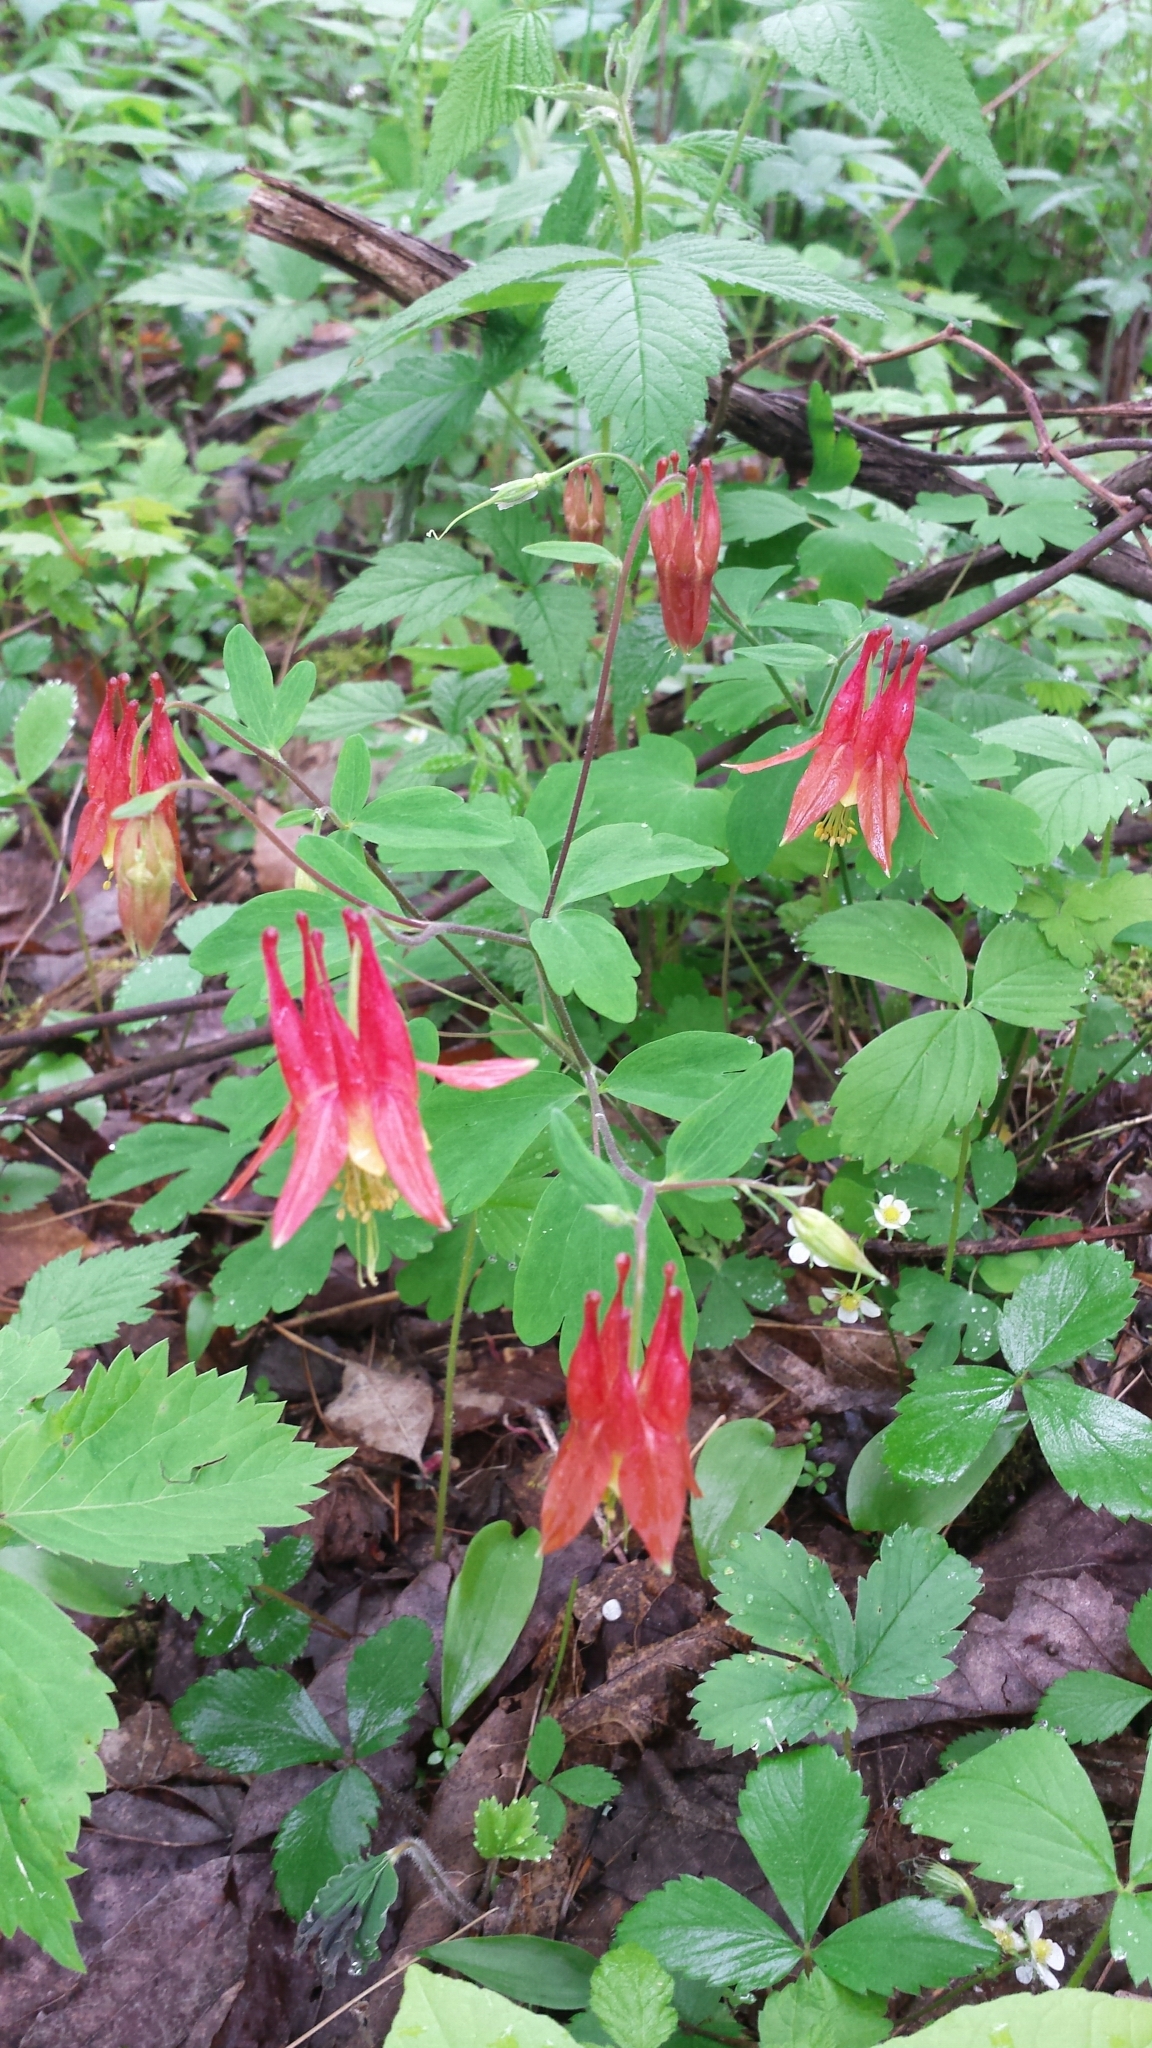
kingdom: Plantae
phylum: Tracheophyta
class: Magnoliopsida
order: Ranunculales
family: Ranunculaceae
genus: Aquilegia
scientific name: Aquilegia canadensis
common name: American columbine
